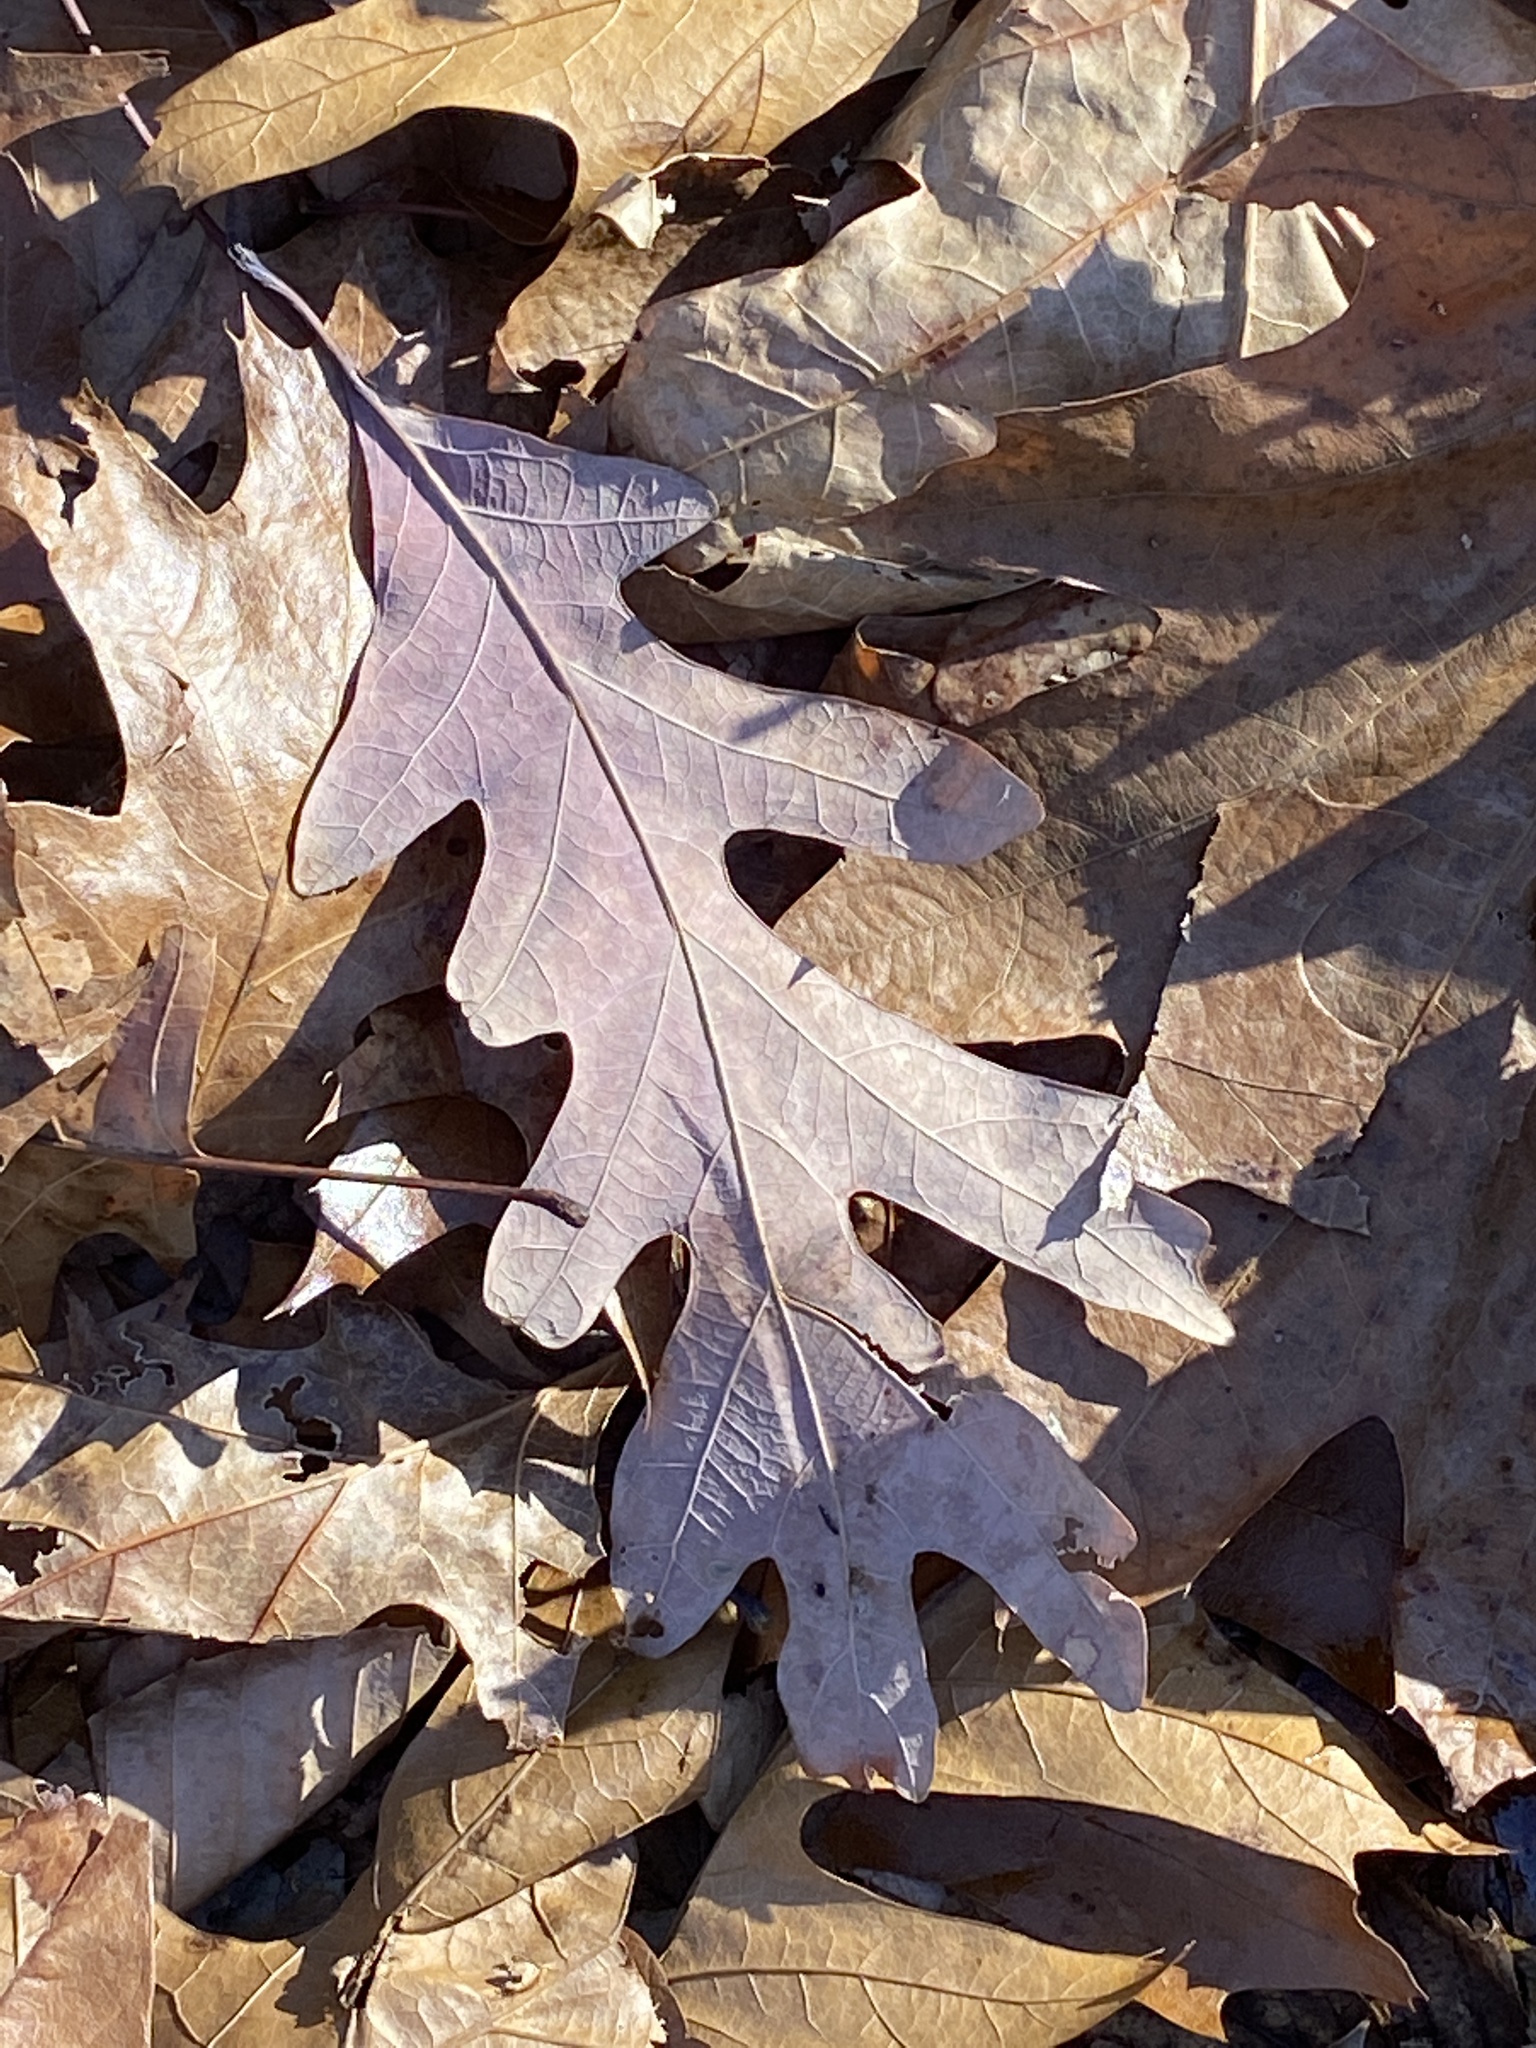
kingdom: Plantae
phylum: Tracheophyta
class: Magnoliopsida
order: Fagales
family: Fagaceae
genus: Quercus
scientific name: Quercus alba
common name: White oak
